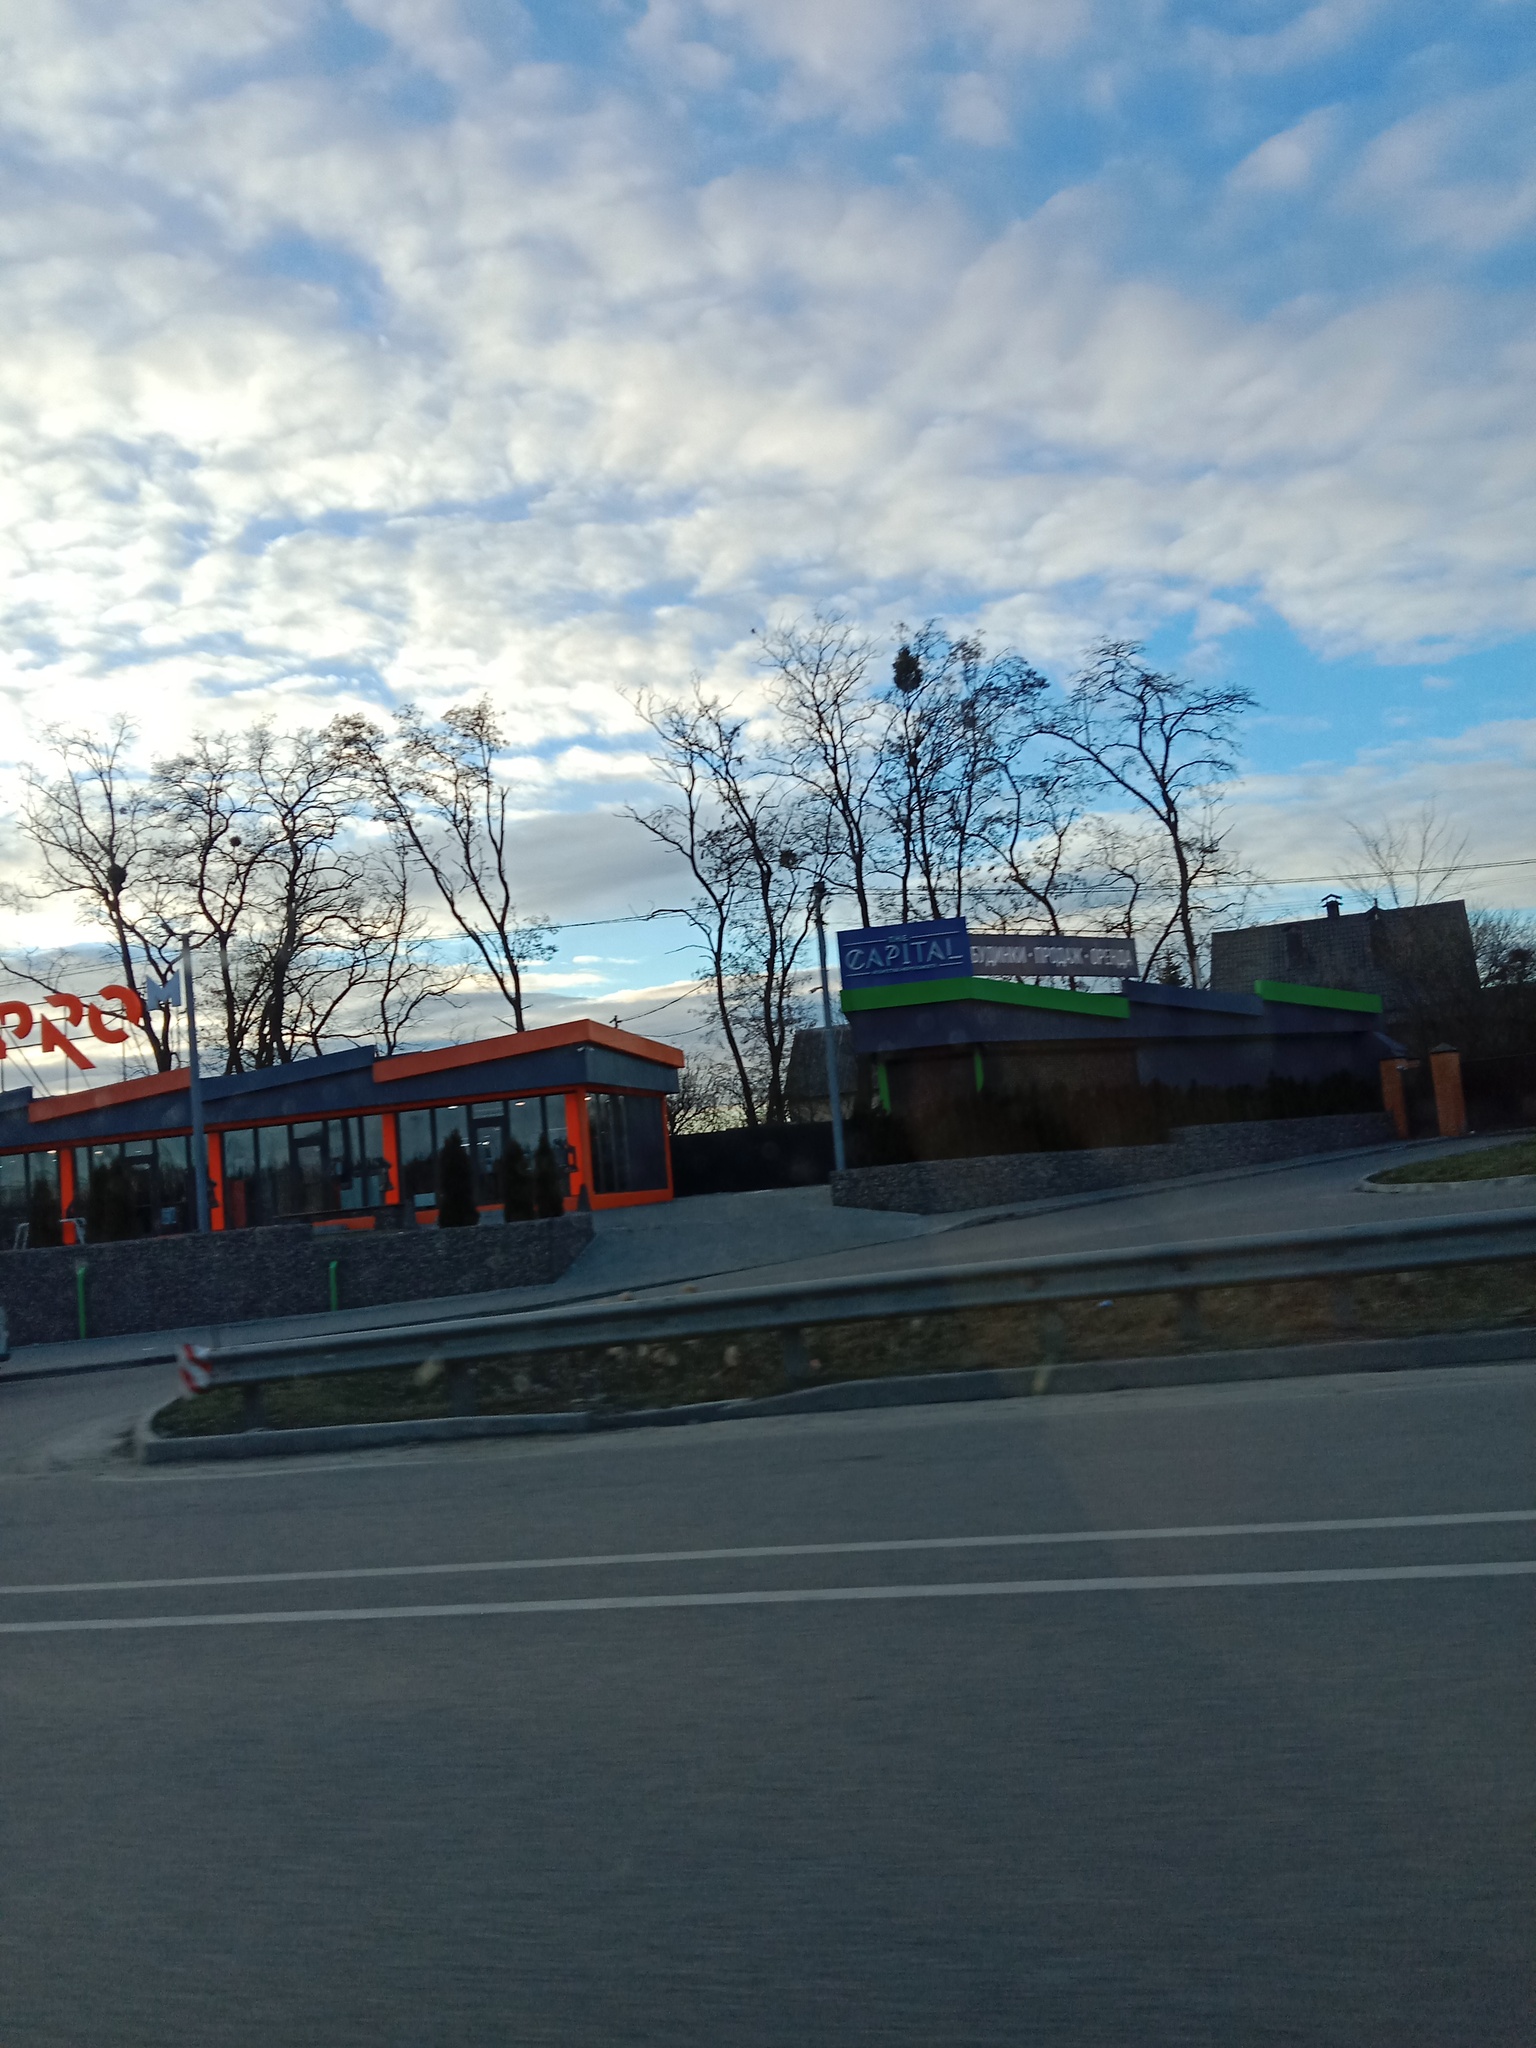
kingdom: Plantae
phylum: Tracheophyta
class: Magnoliopsida
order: Santalales
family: Viscaceae
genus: Viscum
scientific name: Viscum album
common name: Mistletoe
